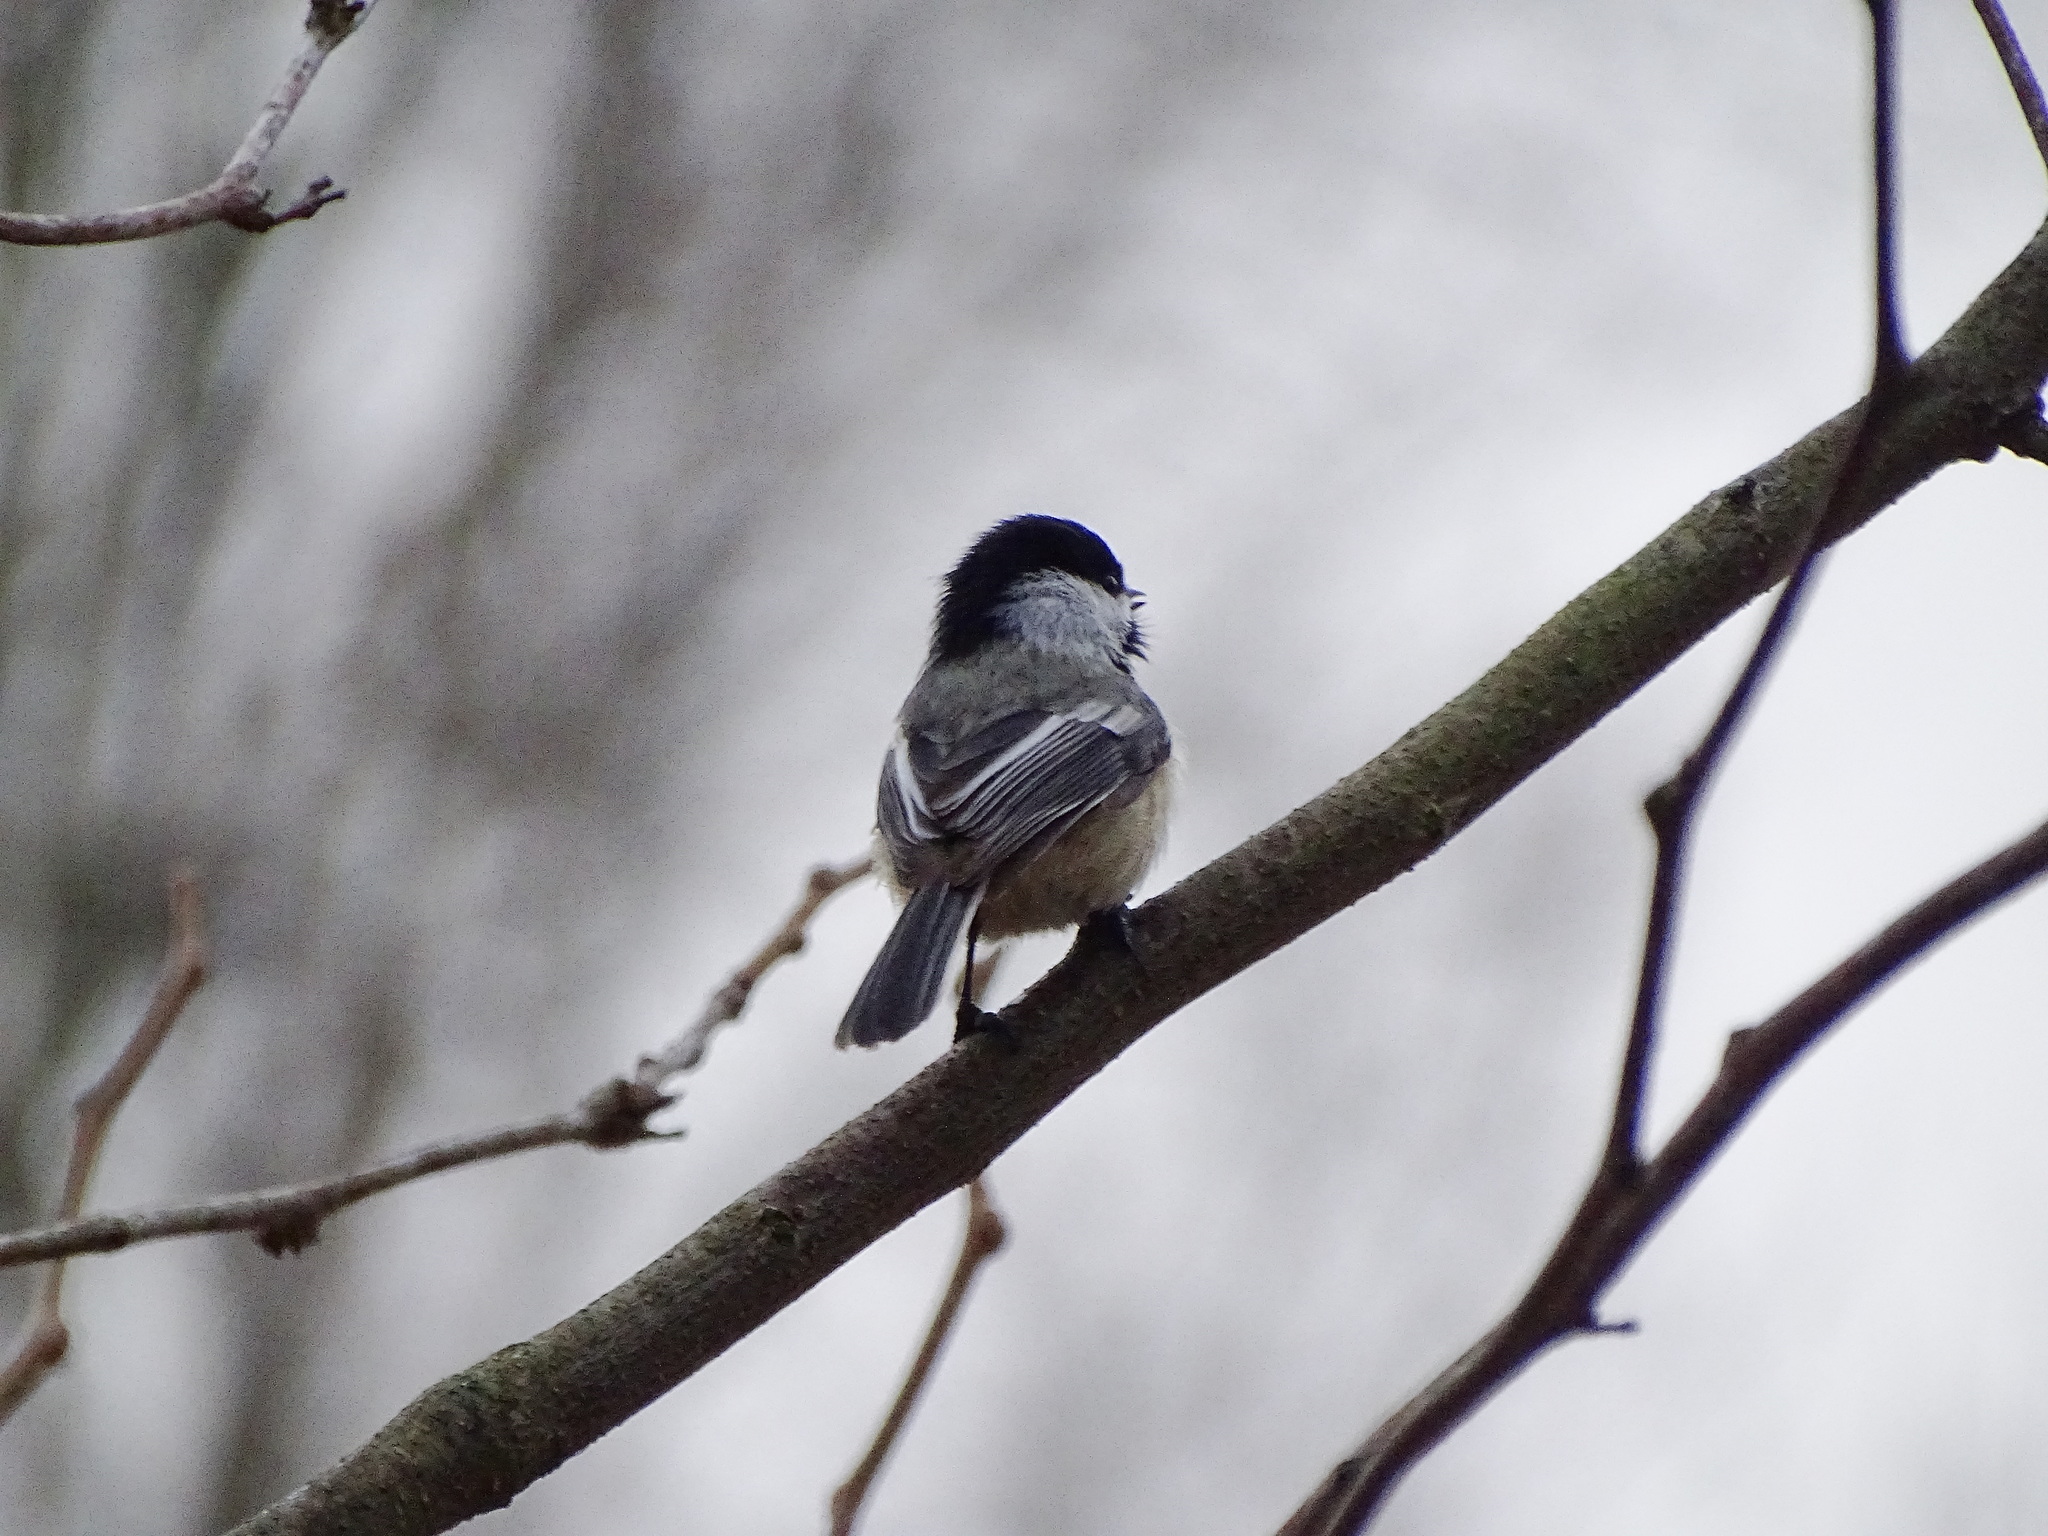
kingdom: Animalia
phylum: Chordata
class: Aves
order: Passeriformes
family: Paridae
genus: Poecile
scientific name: Poecile atricapillus
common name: Black-capped chickadee
